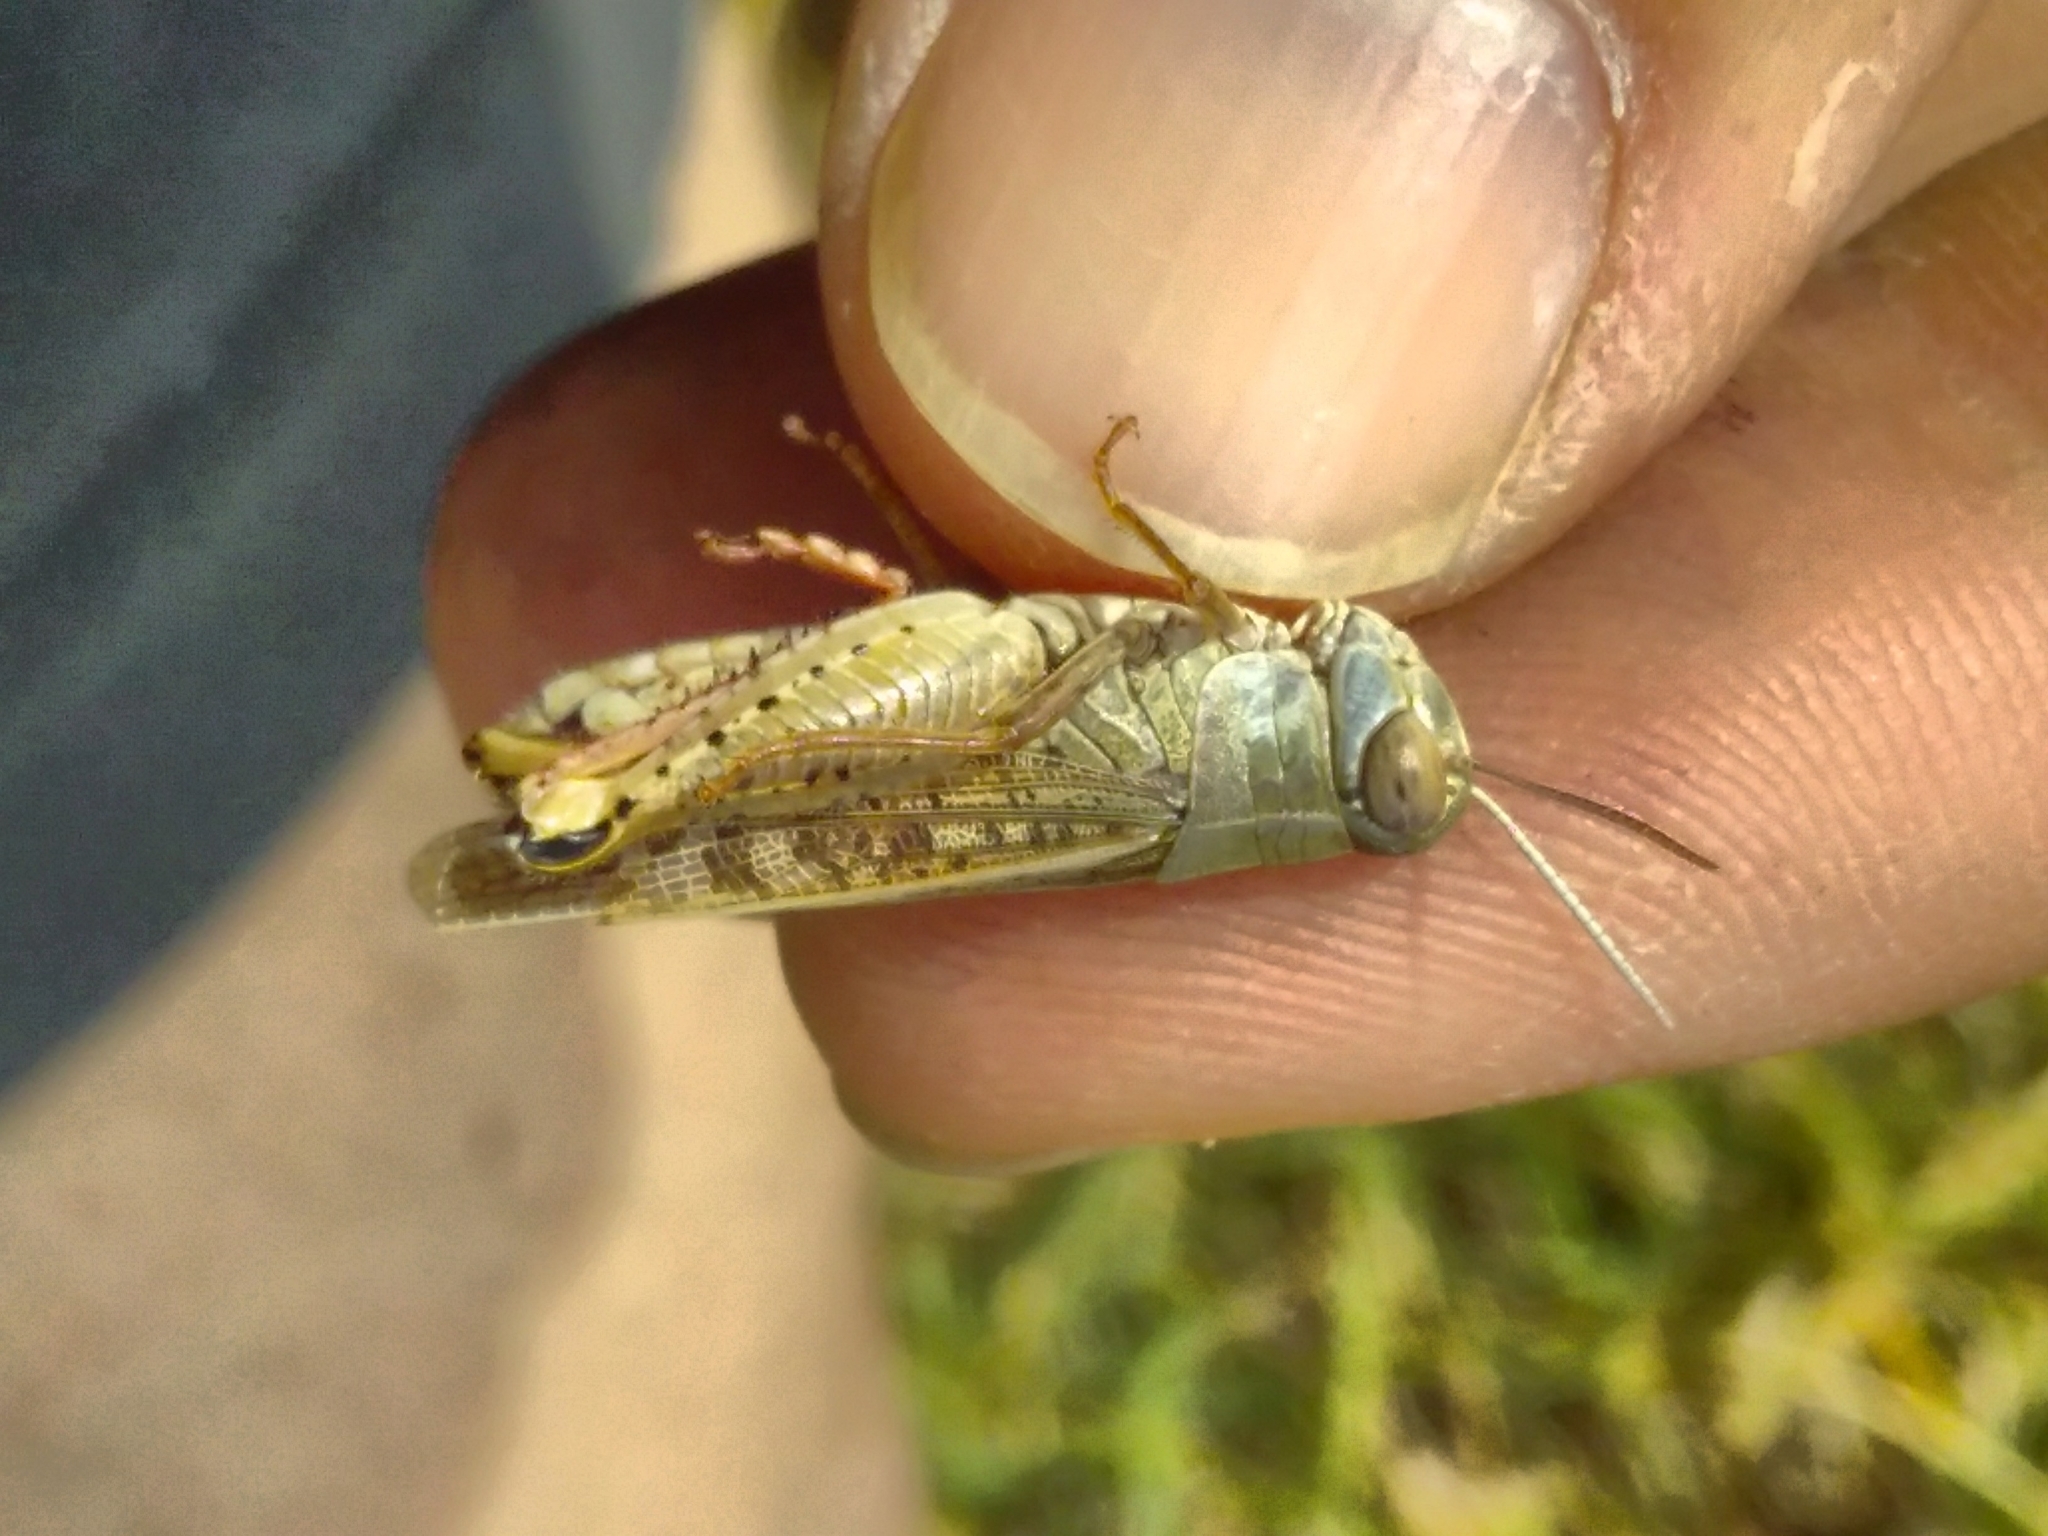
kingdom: Animalia
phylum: Arthropoda
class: Insecta
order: Orthoptera
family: Acrididae
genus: Calliptamus
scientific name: Calliptamus italicus
